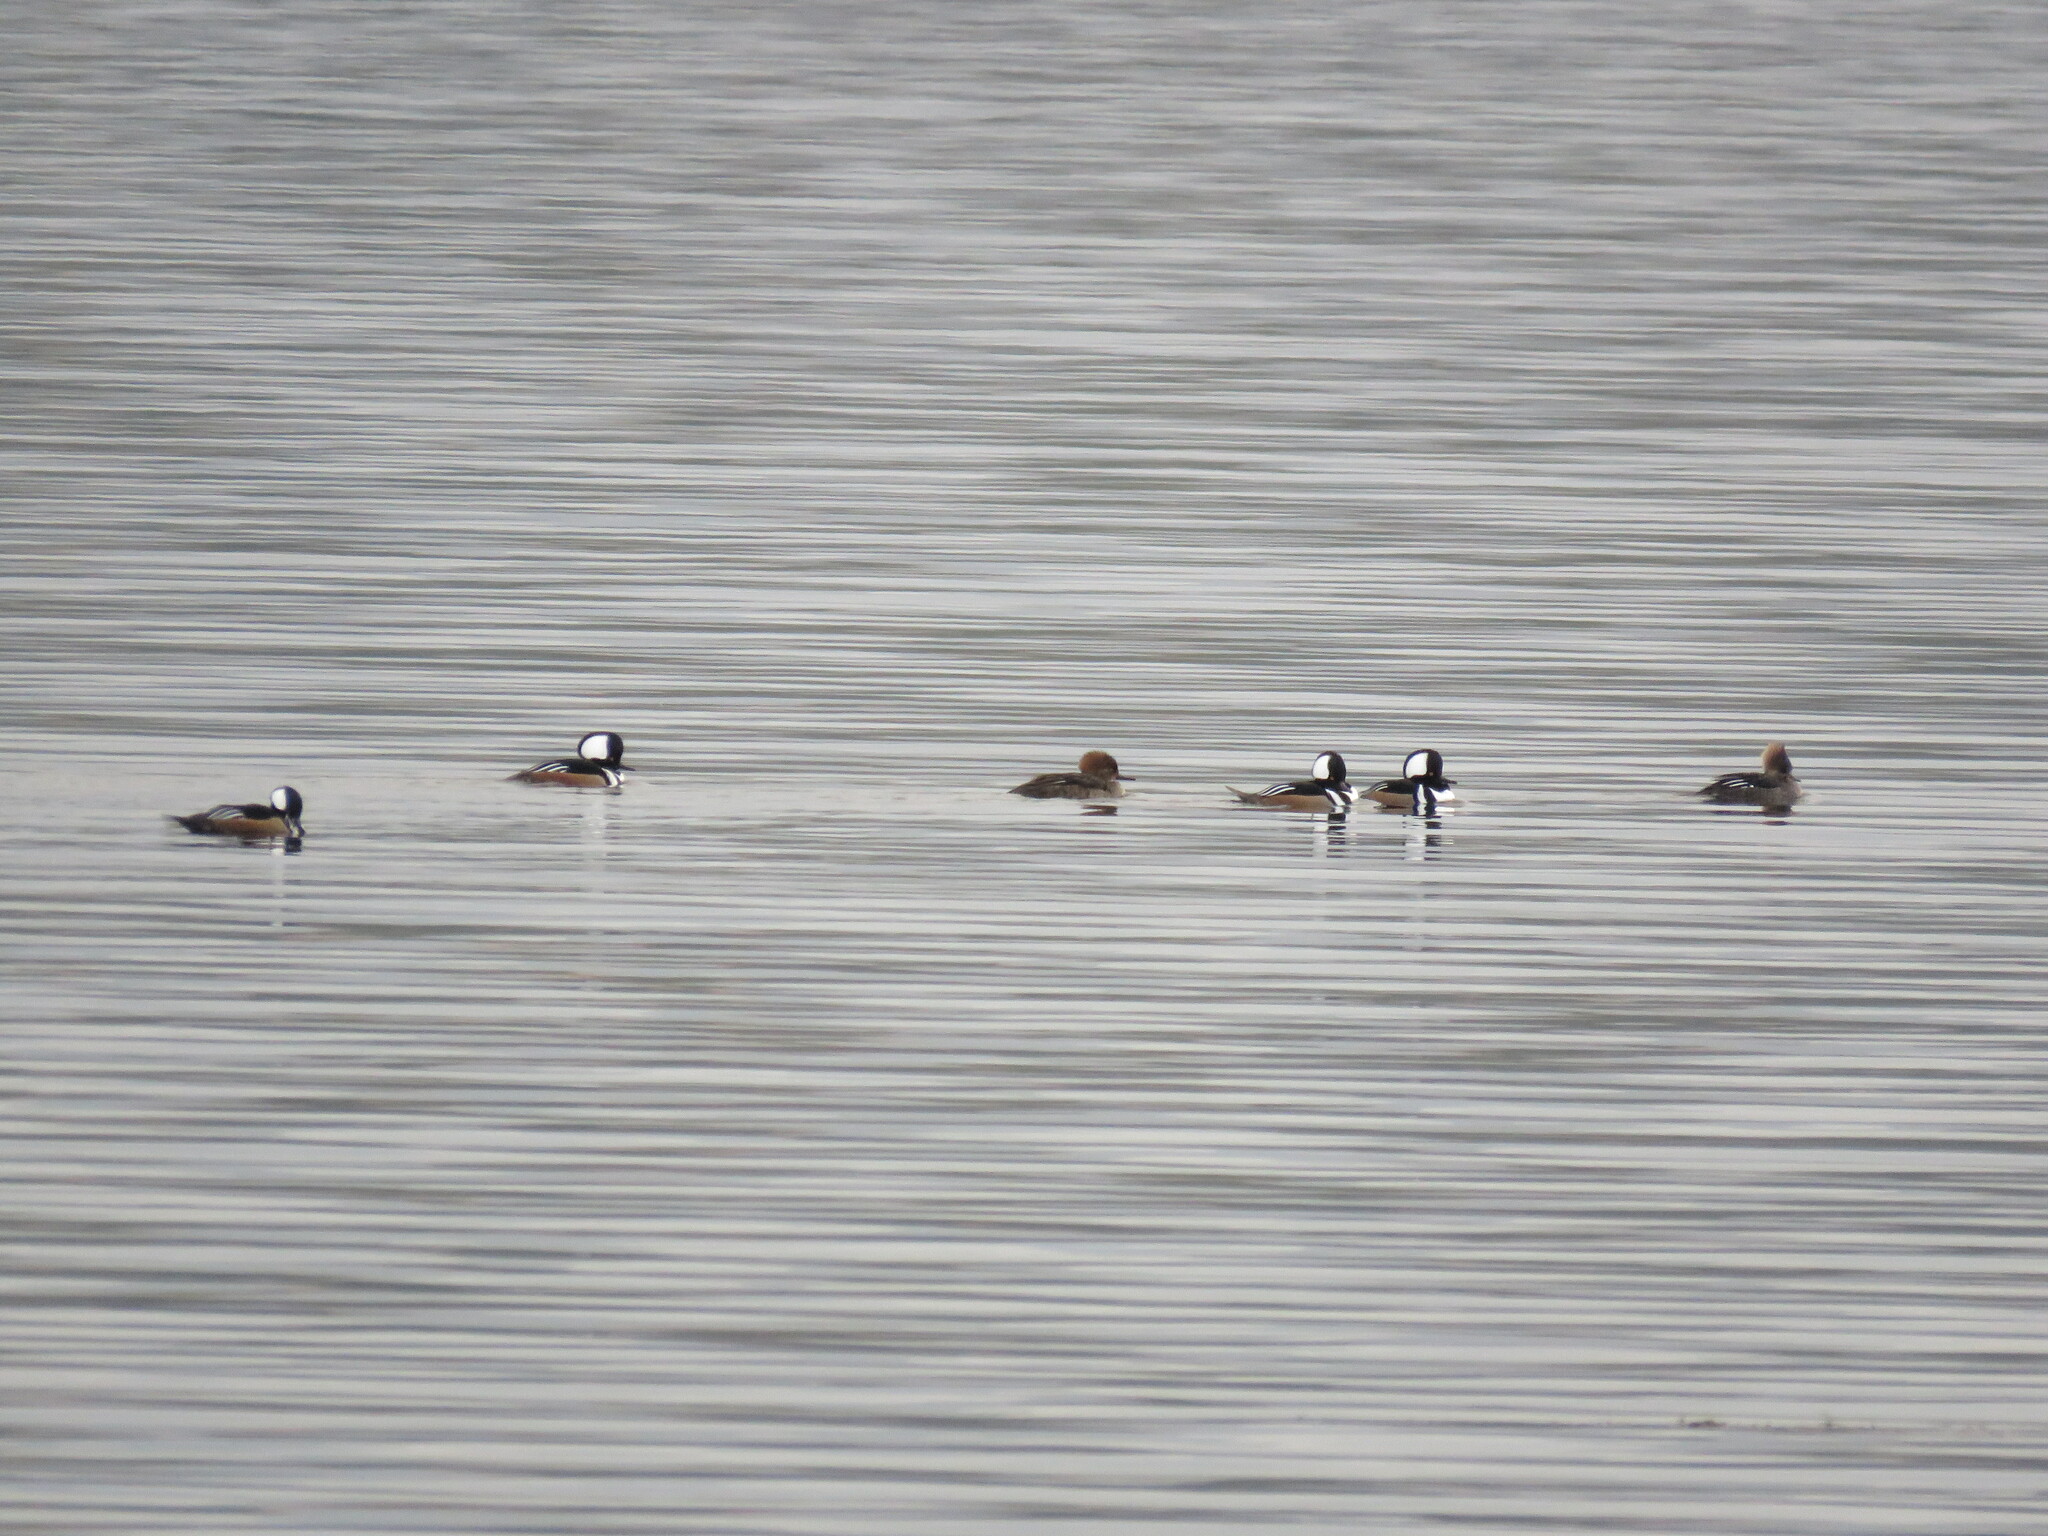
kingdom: Animalia
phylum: Chordata
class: Aves
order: Anseriformes
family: Anatidae
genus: Lophodytes
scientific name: Lophodytes cucullatus
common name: Hooded merganser
